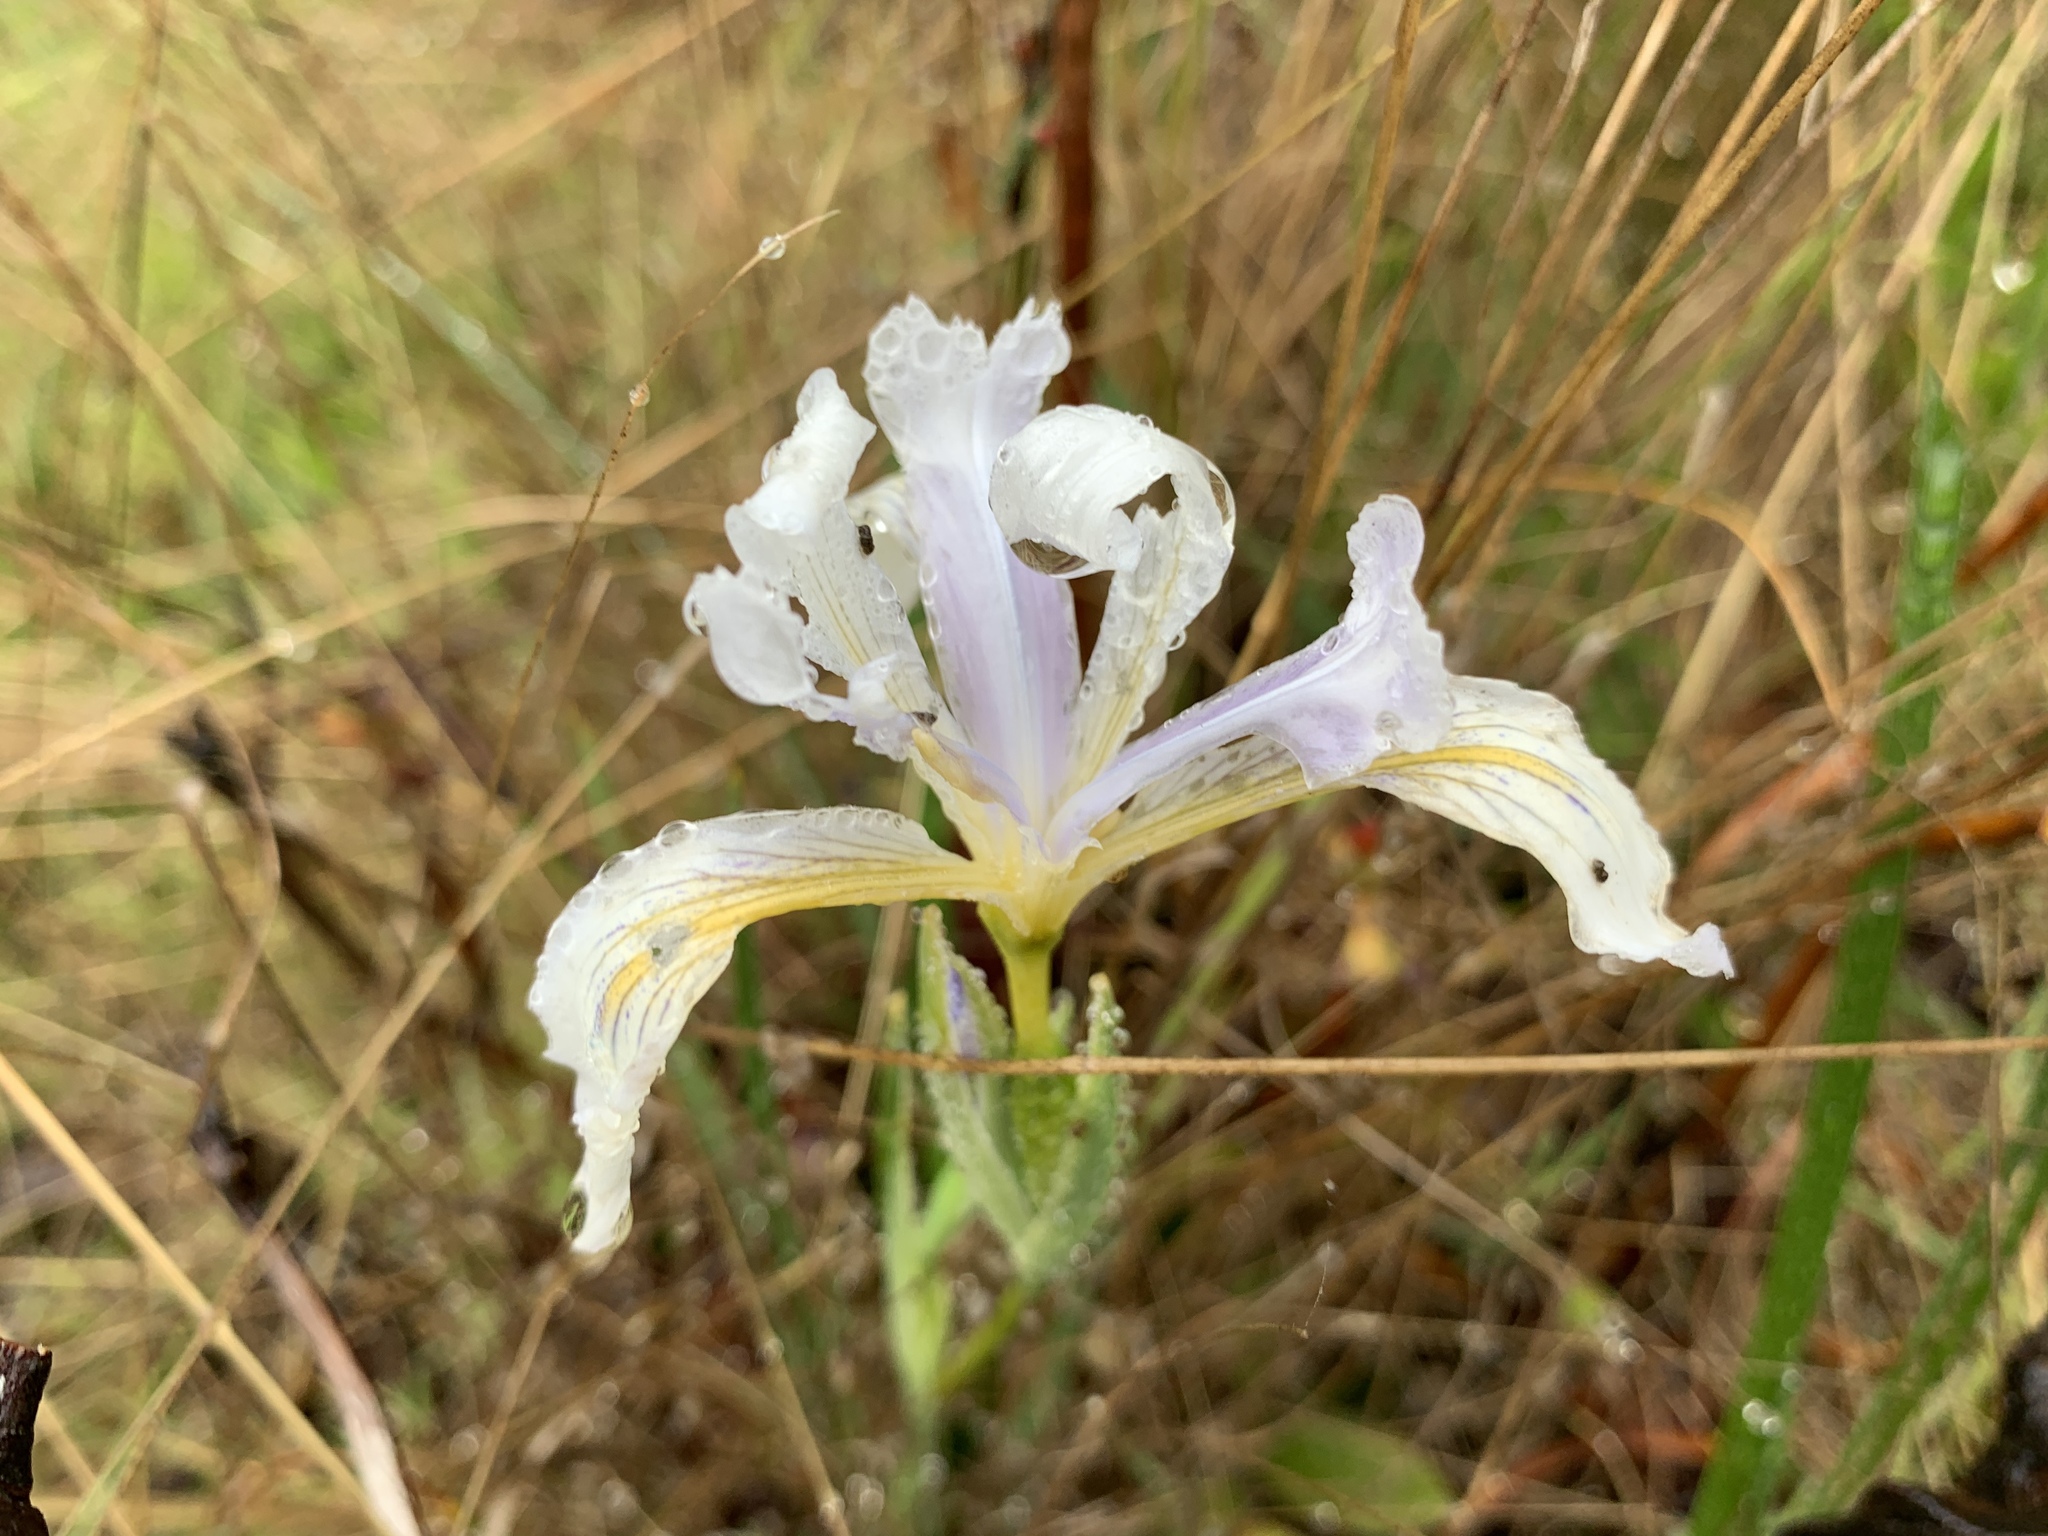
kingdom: Plantae
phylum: Tracheophyta
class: Liliopsida
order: Asparagales
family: Iridaceae
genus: Iris
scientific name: Iris douglasiana
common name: Marin iris
